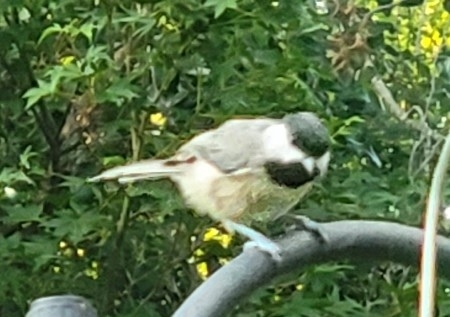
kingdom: Animalia
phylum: Chordata
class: Aves
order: Passeriformes
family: Paridae
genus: Poecile
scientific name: Poecile carolinensis
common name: Carolina chickadee
